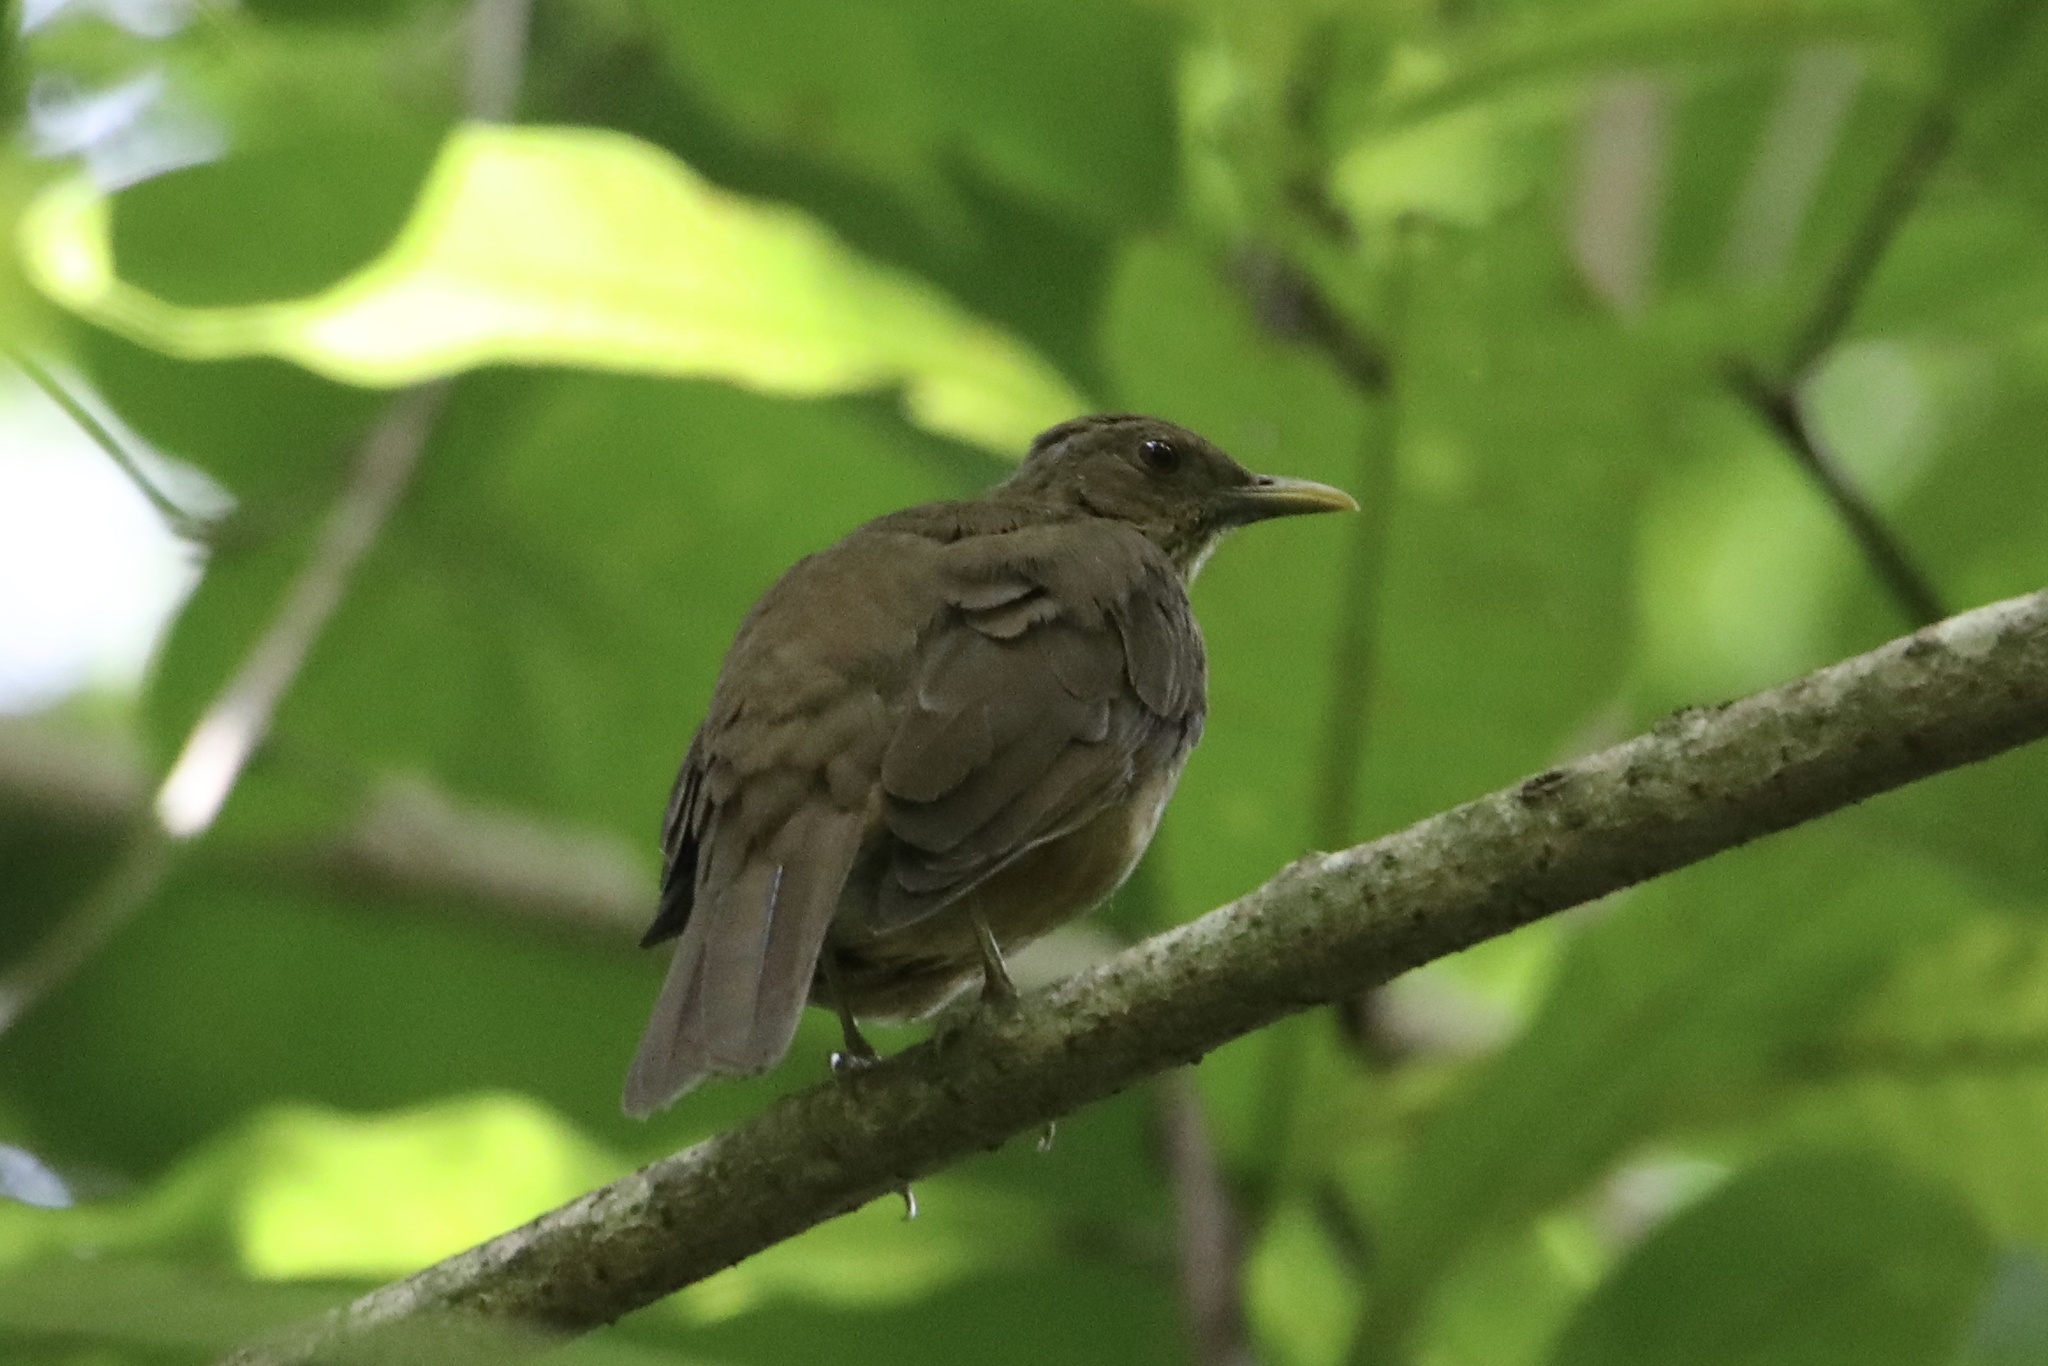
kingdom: Animalia
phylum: Chordata
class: Aves
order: Passeriformes
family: Turdidae
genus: Turdus
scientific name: Turdus grayi
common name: Clay-colored thrush
